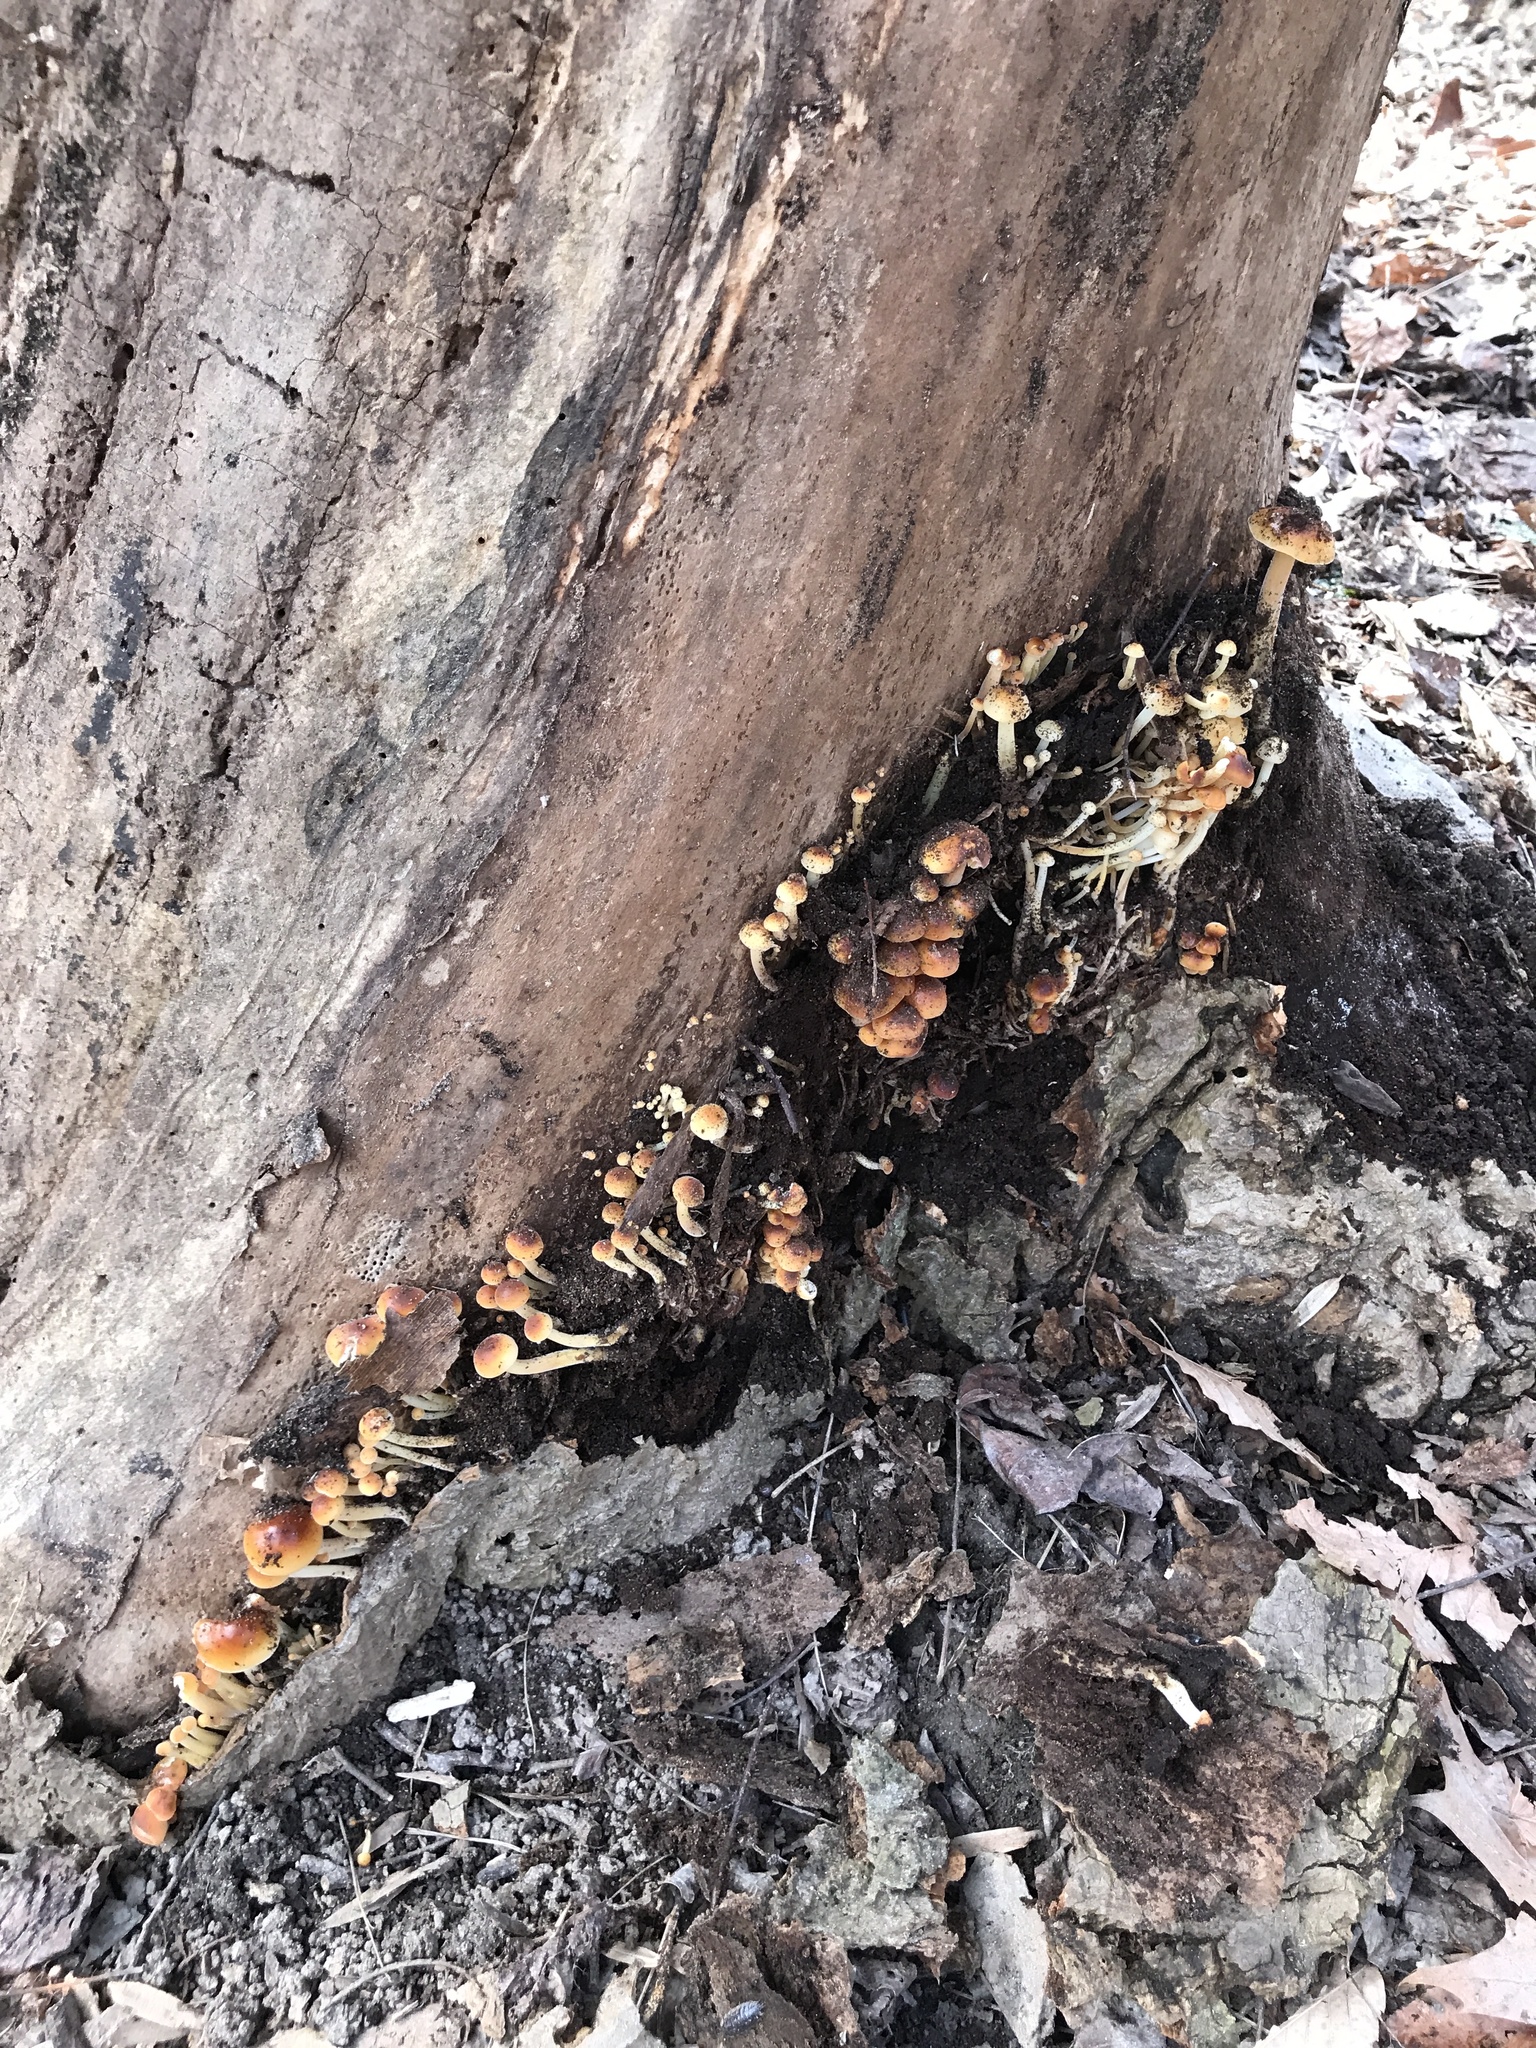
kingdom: Fungi
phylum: Basidiomycota
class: Agaricomycetes
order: Agaricales
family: Physalacriaceae
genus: Flammulina
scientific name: Flammulina velutipes
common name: Velvet shank
